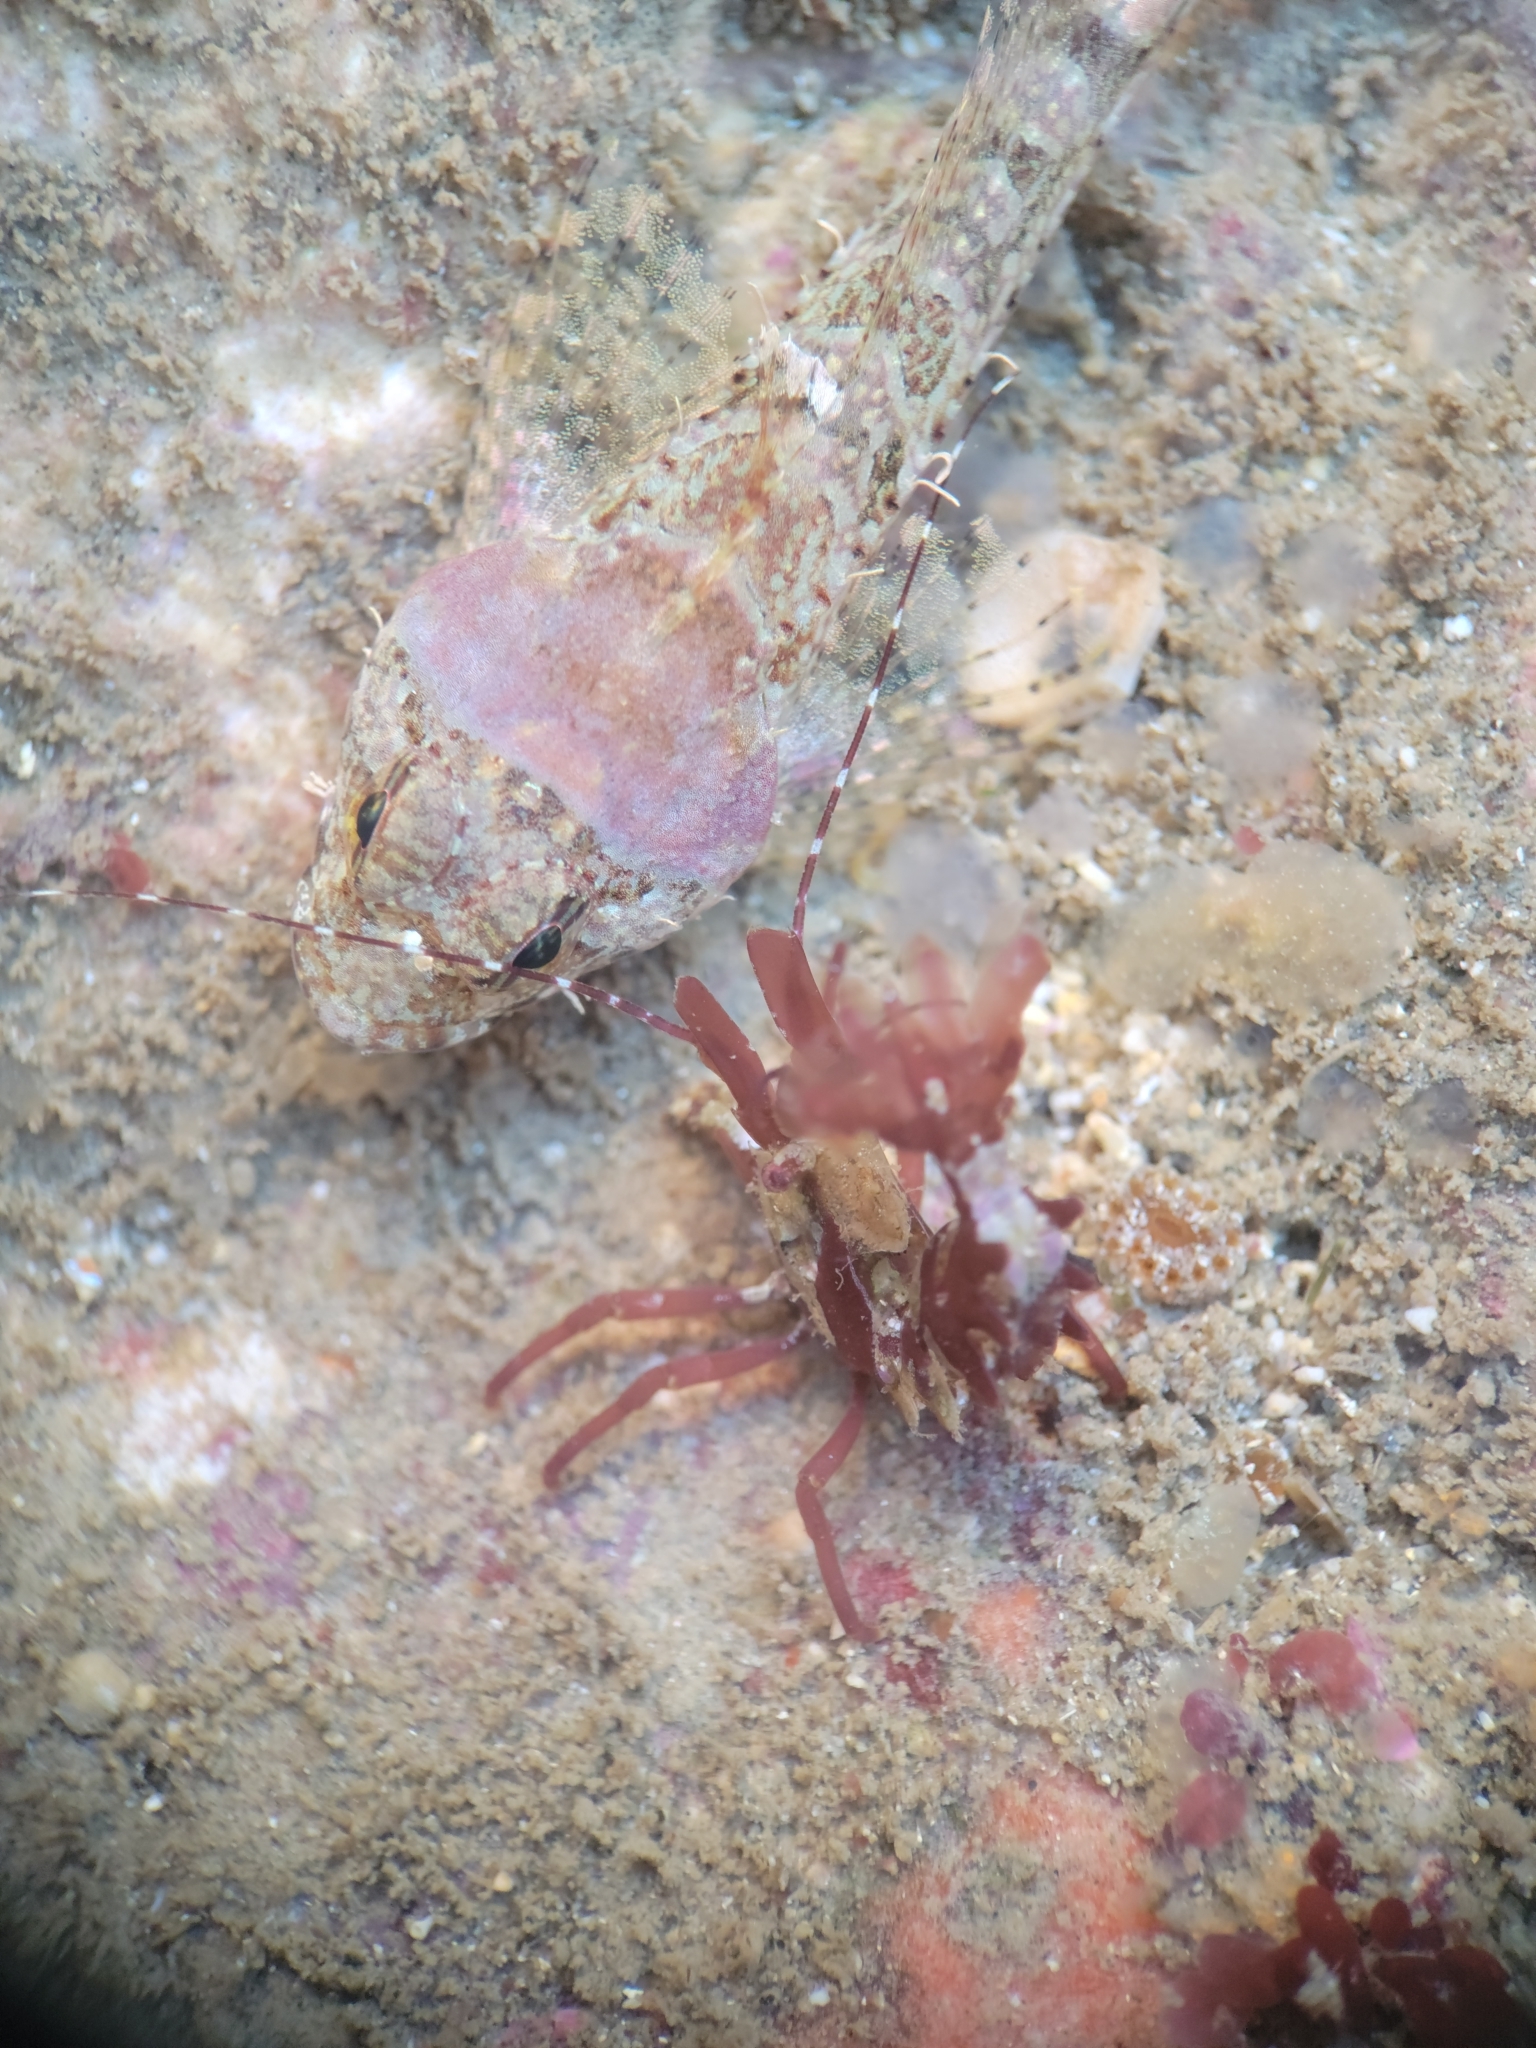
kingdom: Animalia
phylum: Arthropoda
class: Malacostraca
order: Decapoda
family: Thoridae
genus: Lebbeus
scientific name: Lebbeus lagunae
